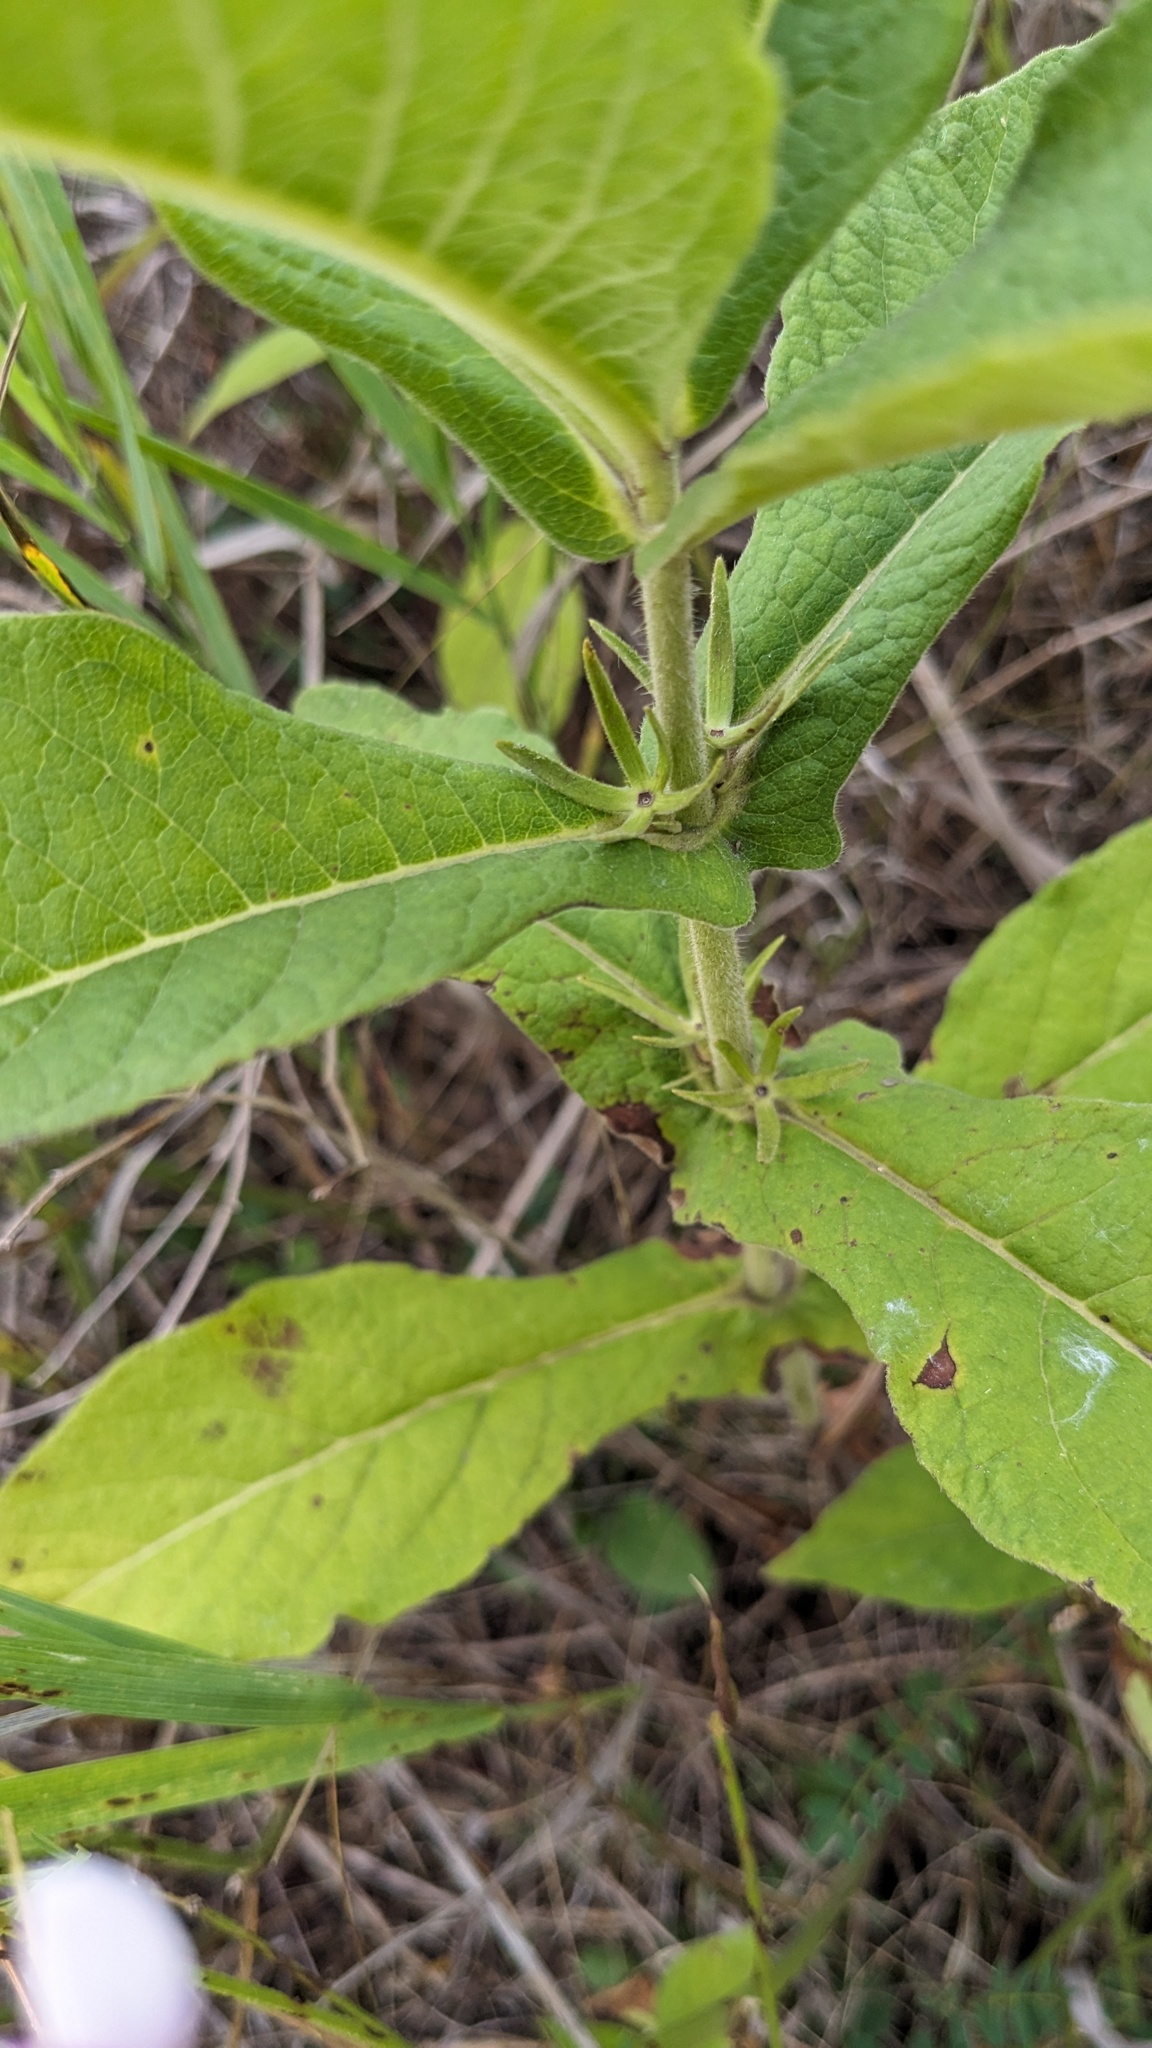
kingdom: Plantae
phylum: Tracheophyta
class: Magnoliopsida
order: Dipsacales
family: Caprifoliaceae
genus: Triosteum
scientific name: Triosteum perfoliatum
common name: Common horse-gentian
